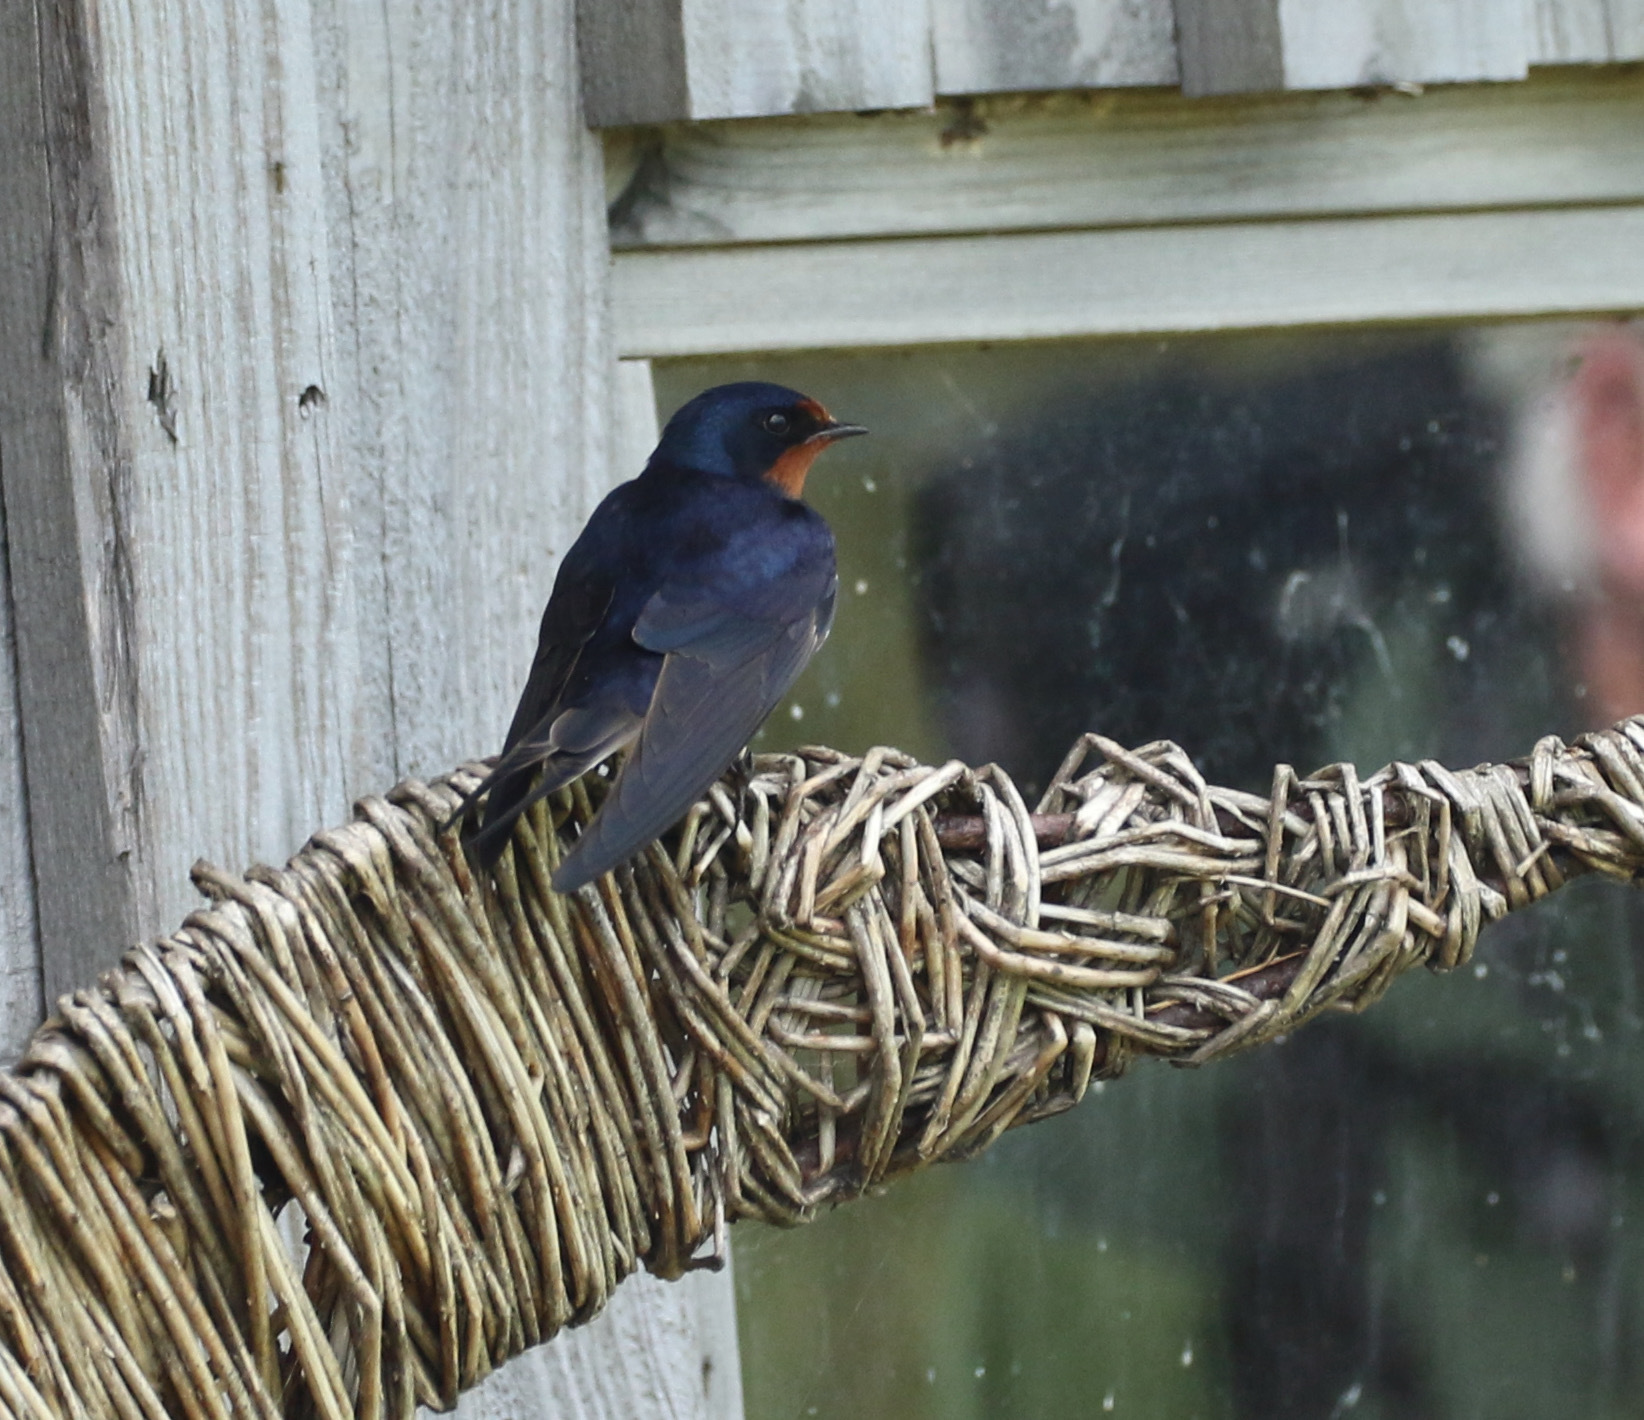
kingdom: Animalia
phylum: Chordata
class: Aves
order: Passeriformes
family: Hirundinidae
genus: Hirundo
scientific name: Hirundo rustica
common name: Barn swallow
